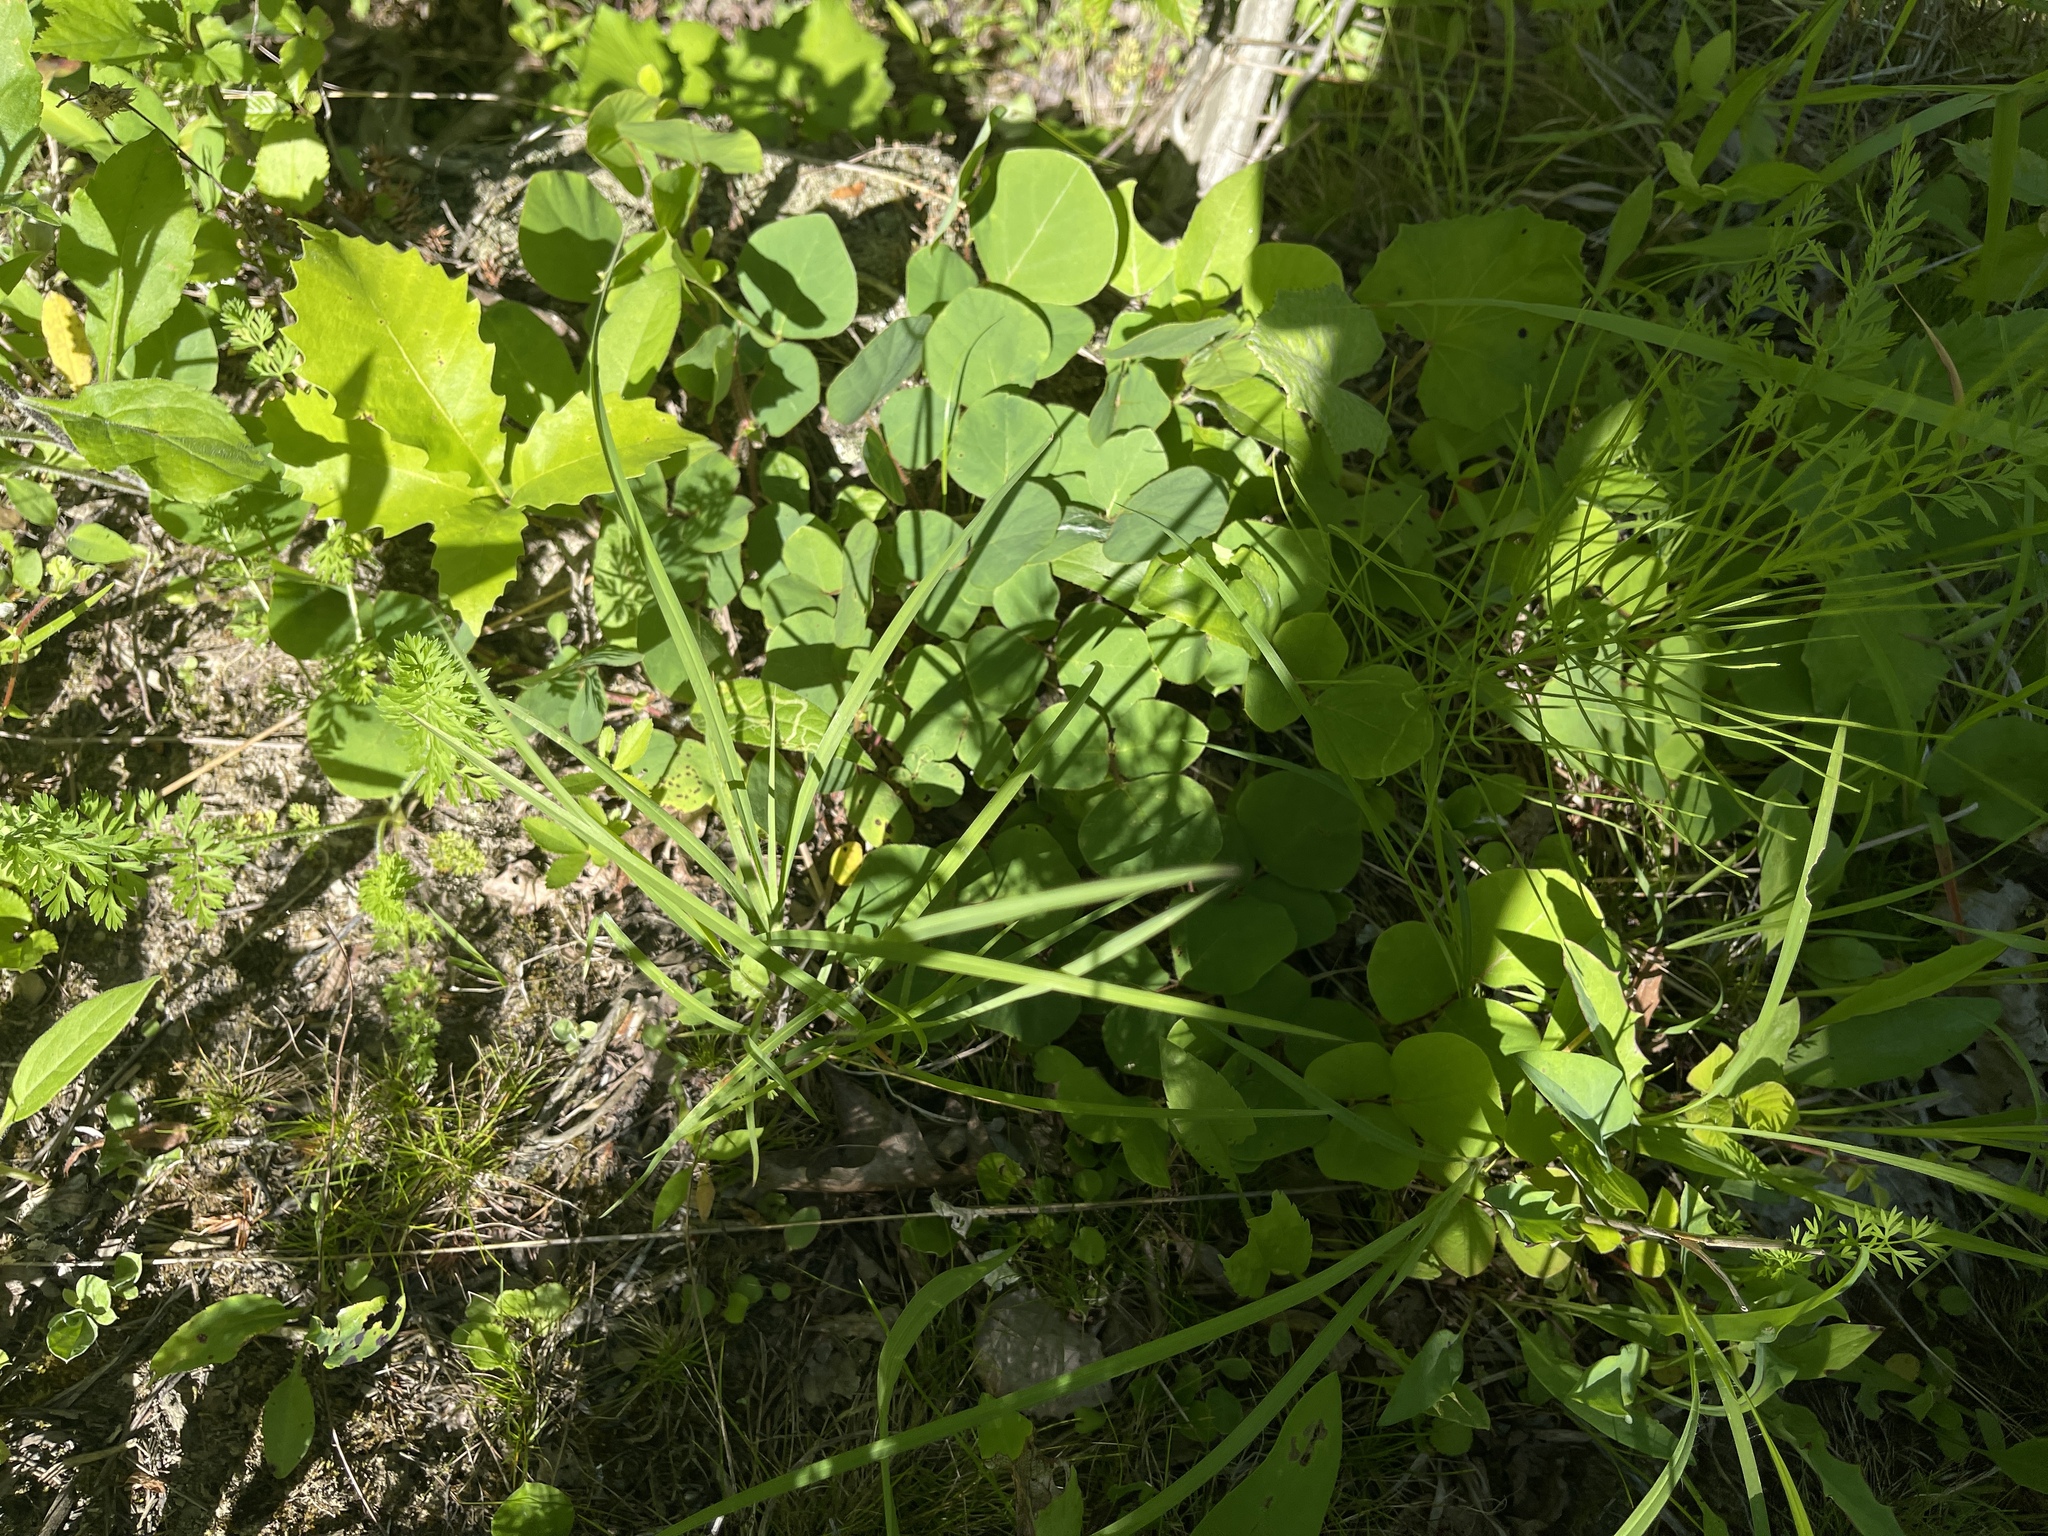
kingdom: Plantae
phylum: Tracheophyta
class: Magnoliopsida
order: Fabales
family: Fabaceae
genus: Desmodium
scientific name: Desmodium rotundifolium
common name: Dollarleaf
